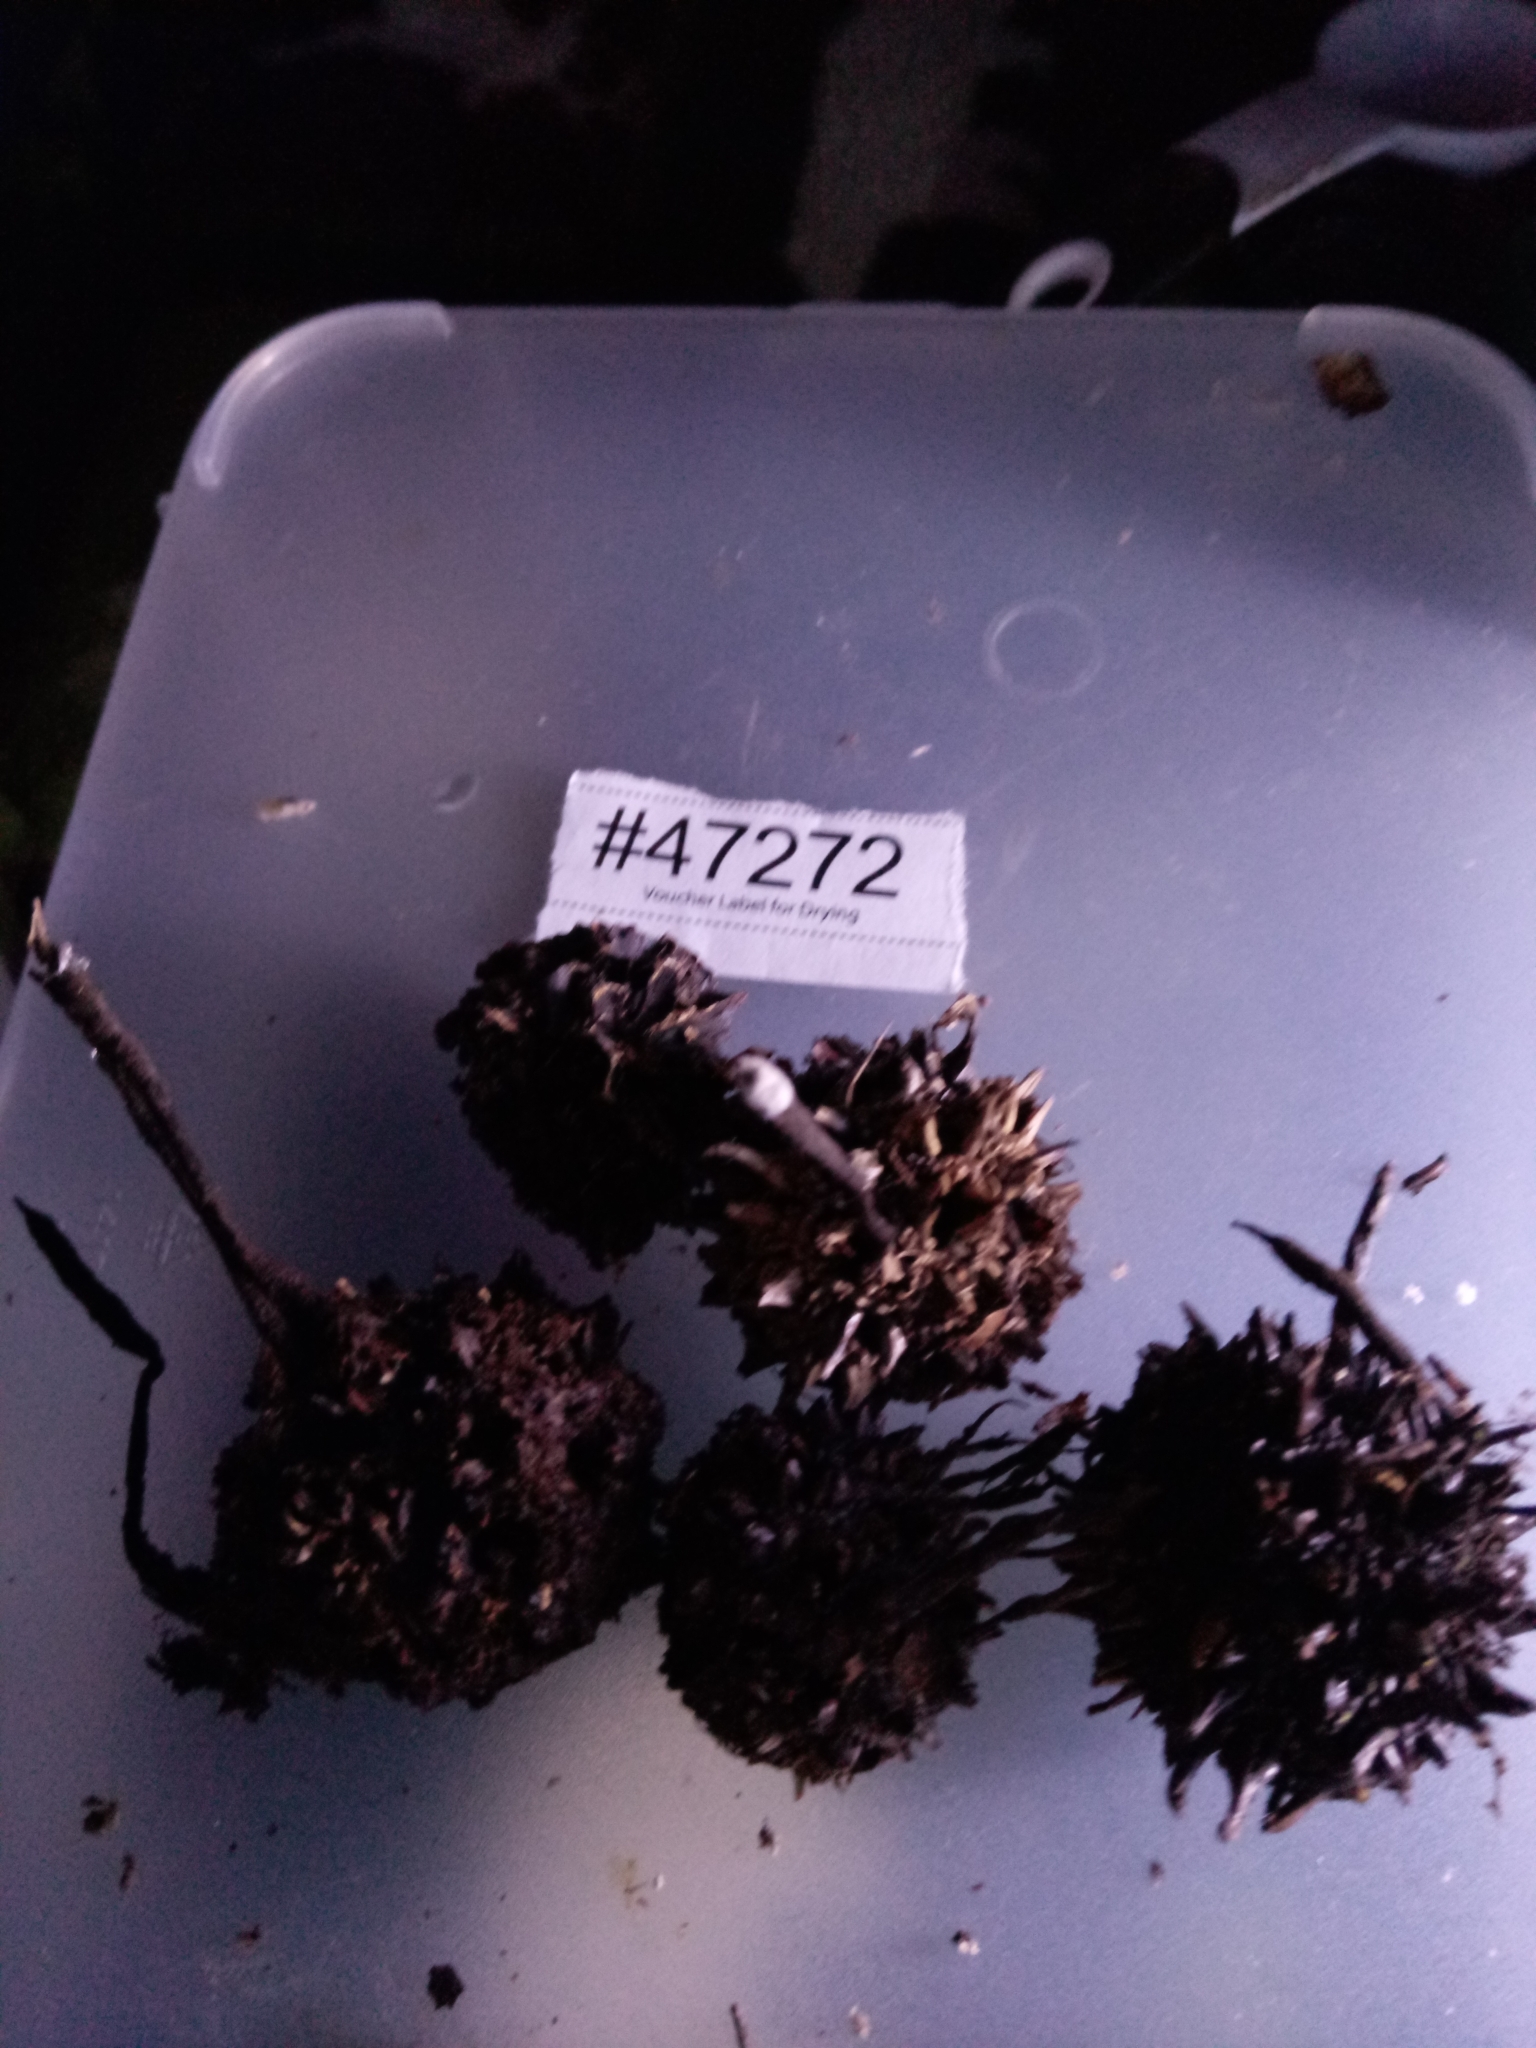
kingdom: Fungi
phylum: Ascomycota
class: Sordariomycetes
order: Xylariales
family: Xylariaceae
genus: Xylaria
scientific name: Xylaria liquidambaris
